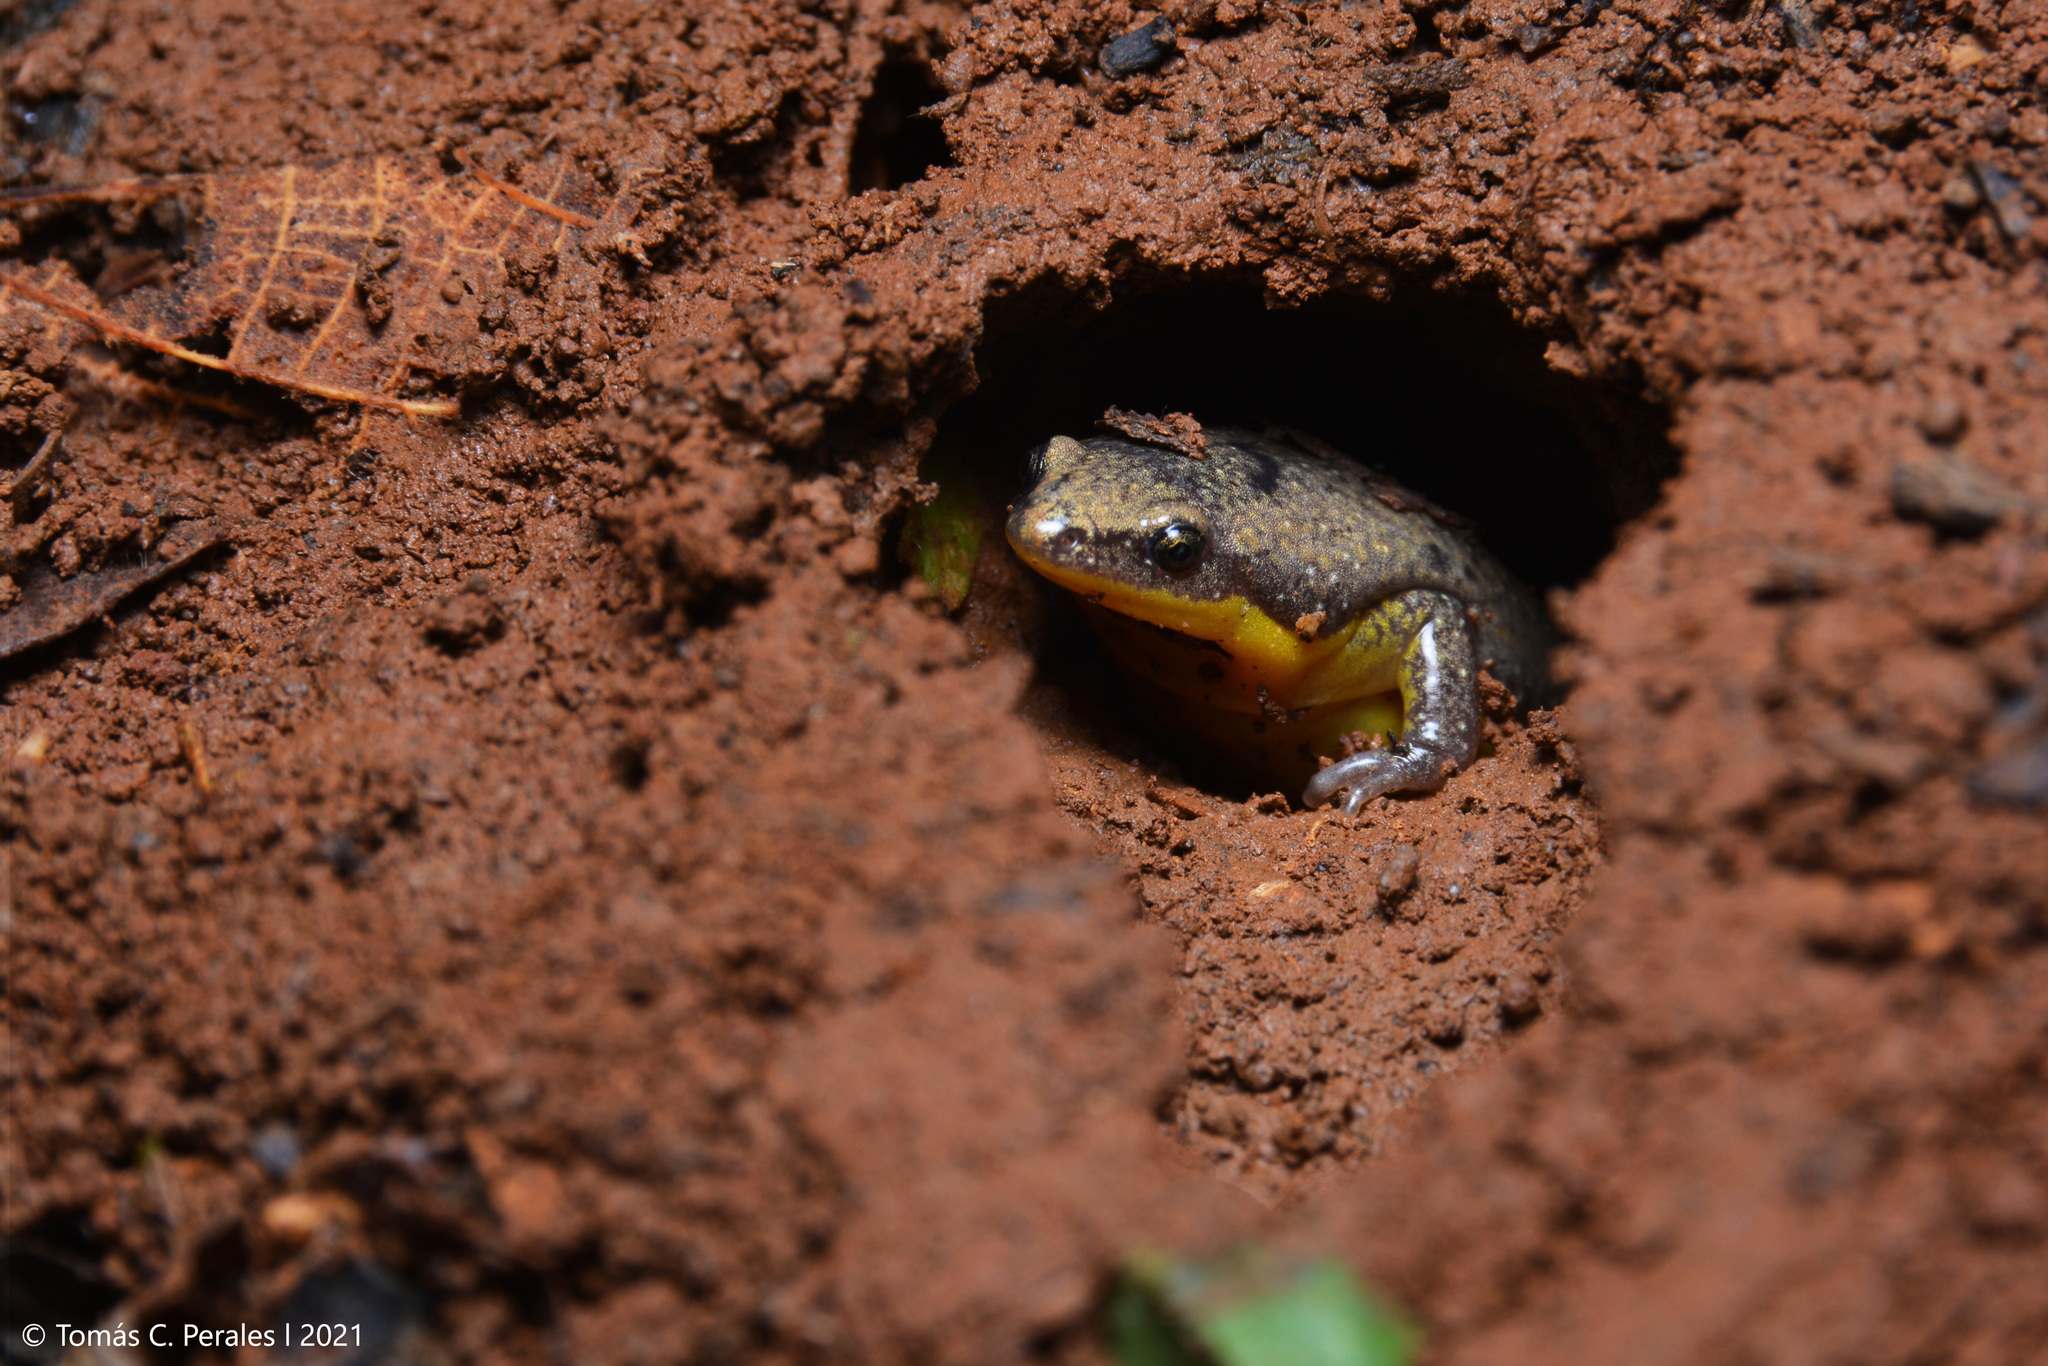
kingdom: Animalia
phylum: Chordata
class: Amphibia
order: Anura
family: Microhylidae
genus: Elachistocleis
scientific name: Elachistocleis bicolor
